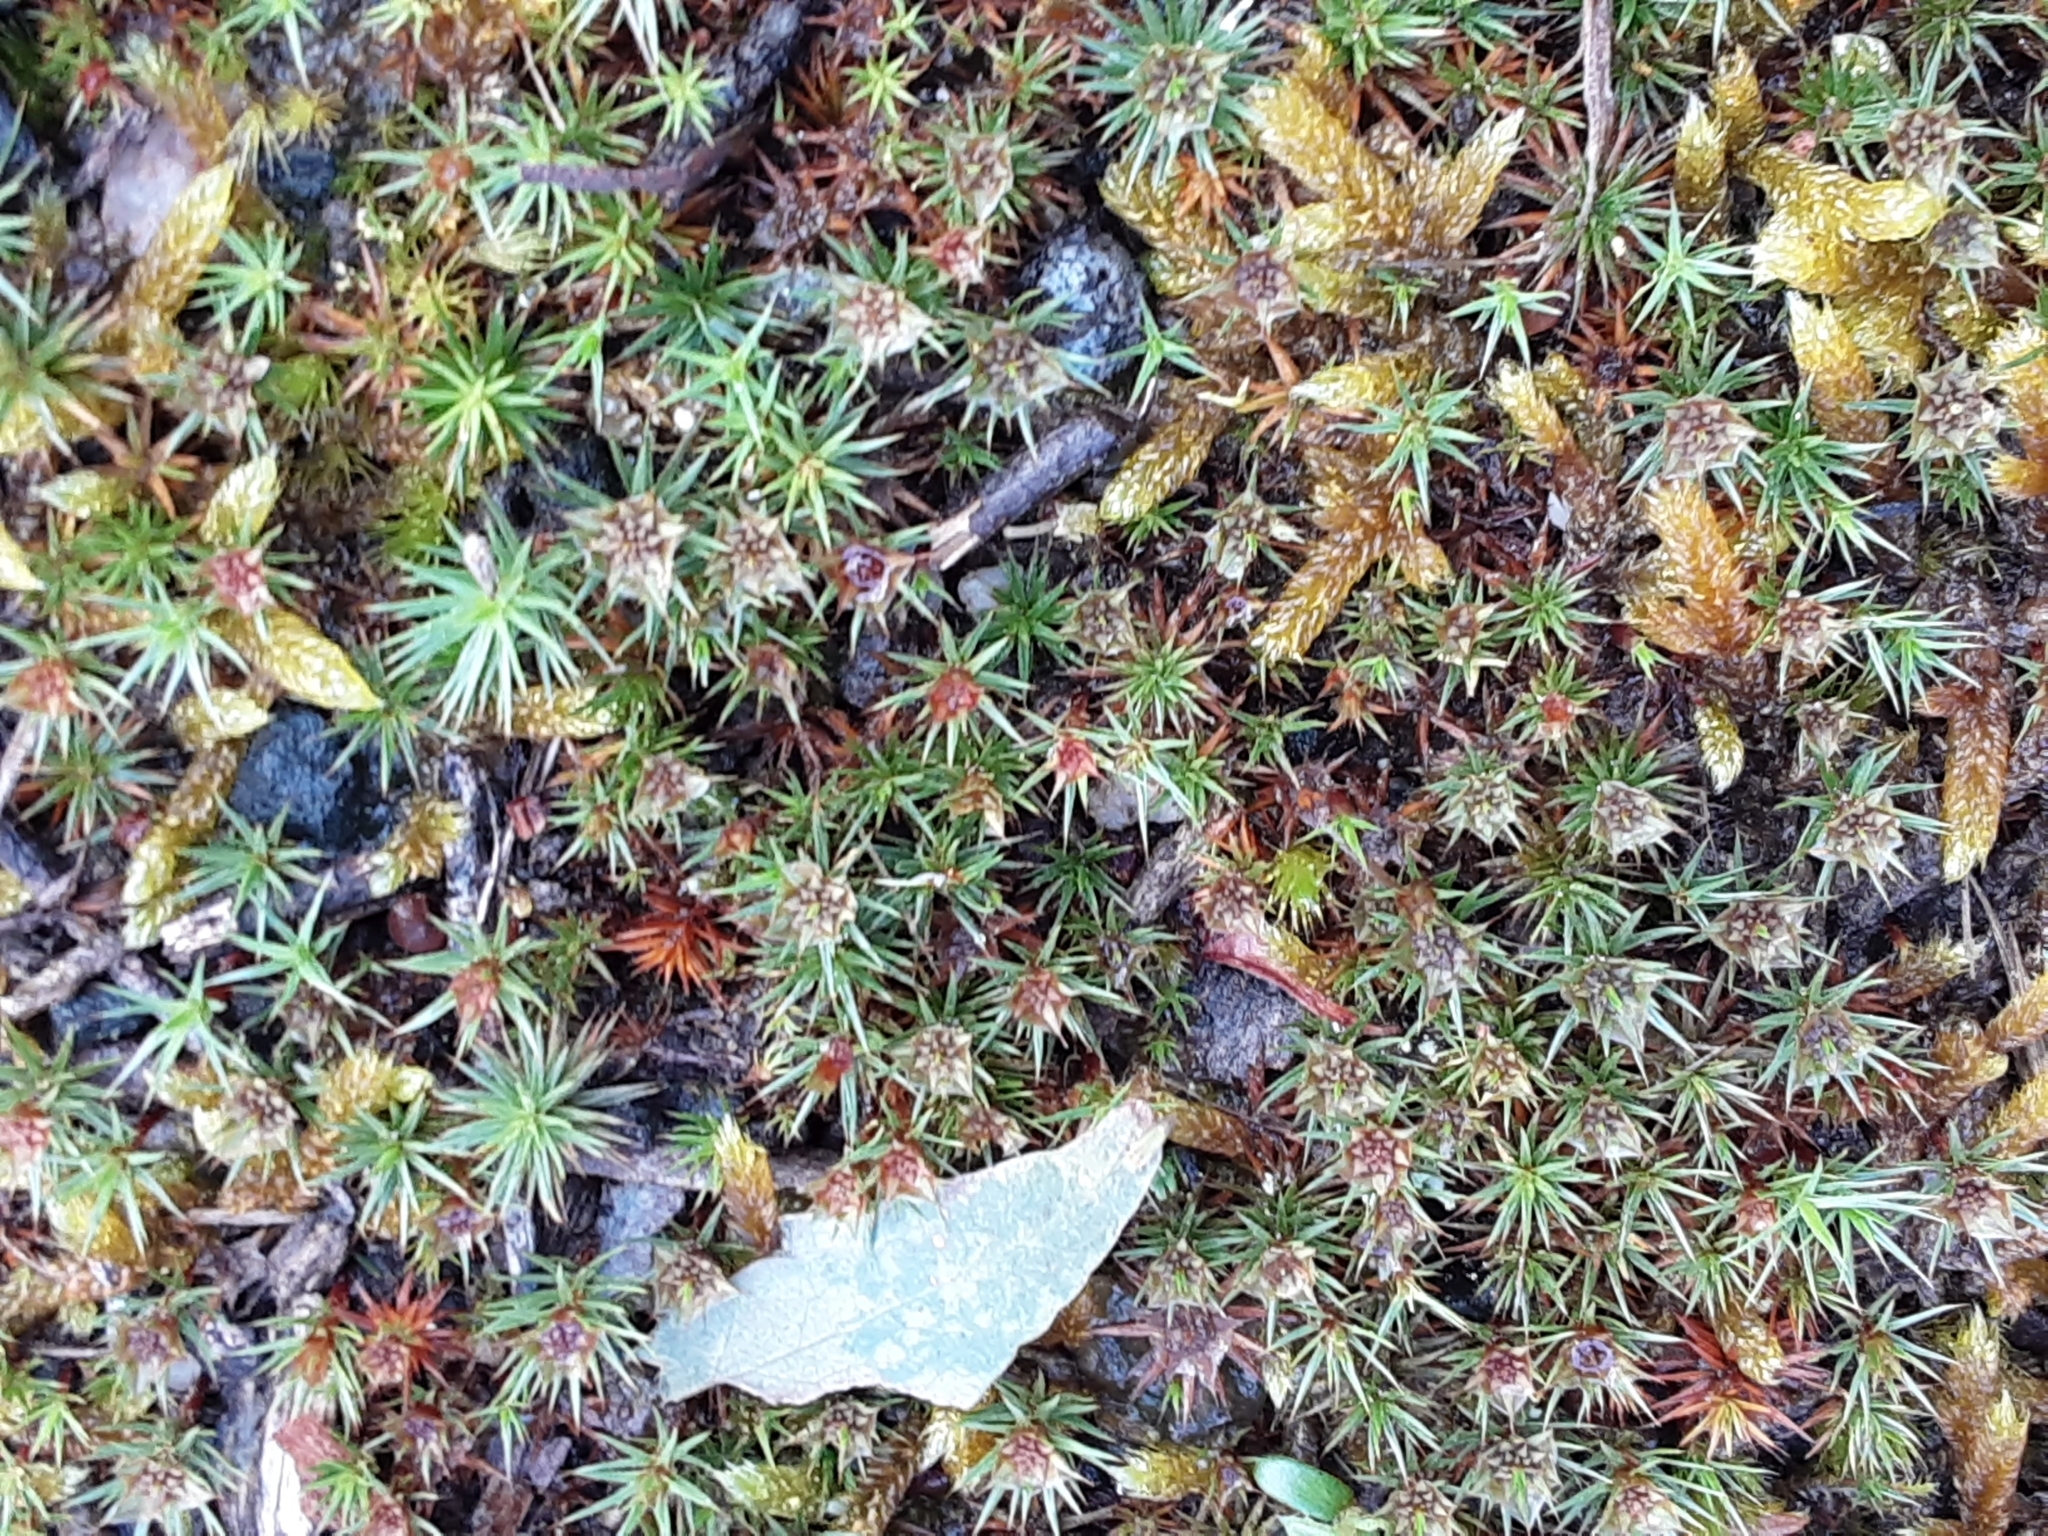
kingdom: Plantae
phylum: Bryophyta
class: Polytrichopsida
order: Polytrichales
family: Polytrichaceae
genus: Polytrichum
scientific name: Polytrichum juniperinum
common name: Juniper haircap moss
